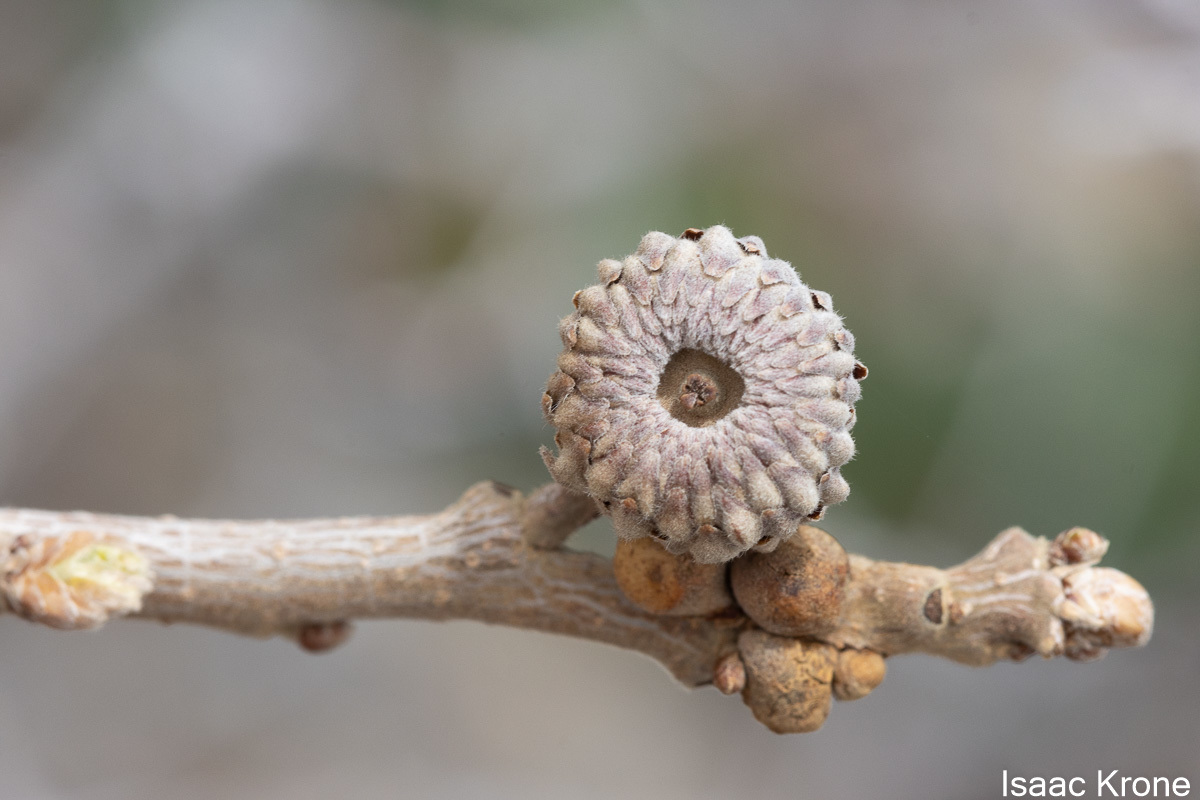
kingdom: Plantae
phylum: Tracheophyta
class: Magnoliopsida
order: Fagales
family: Fagaceae
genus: Quercus
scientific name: Quercus gambelii
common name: Gambel oak
